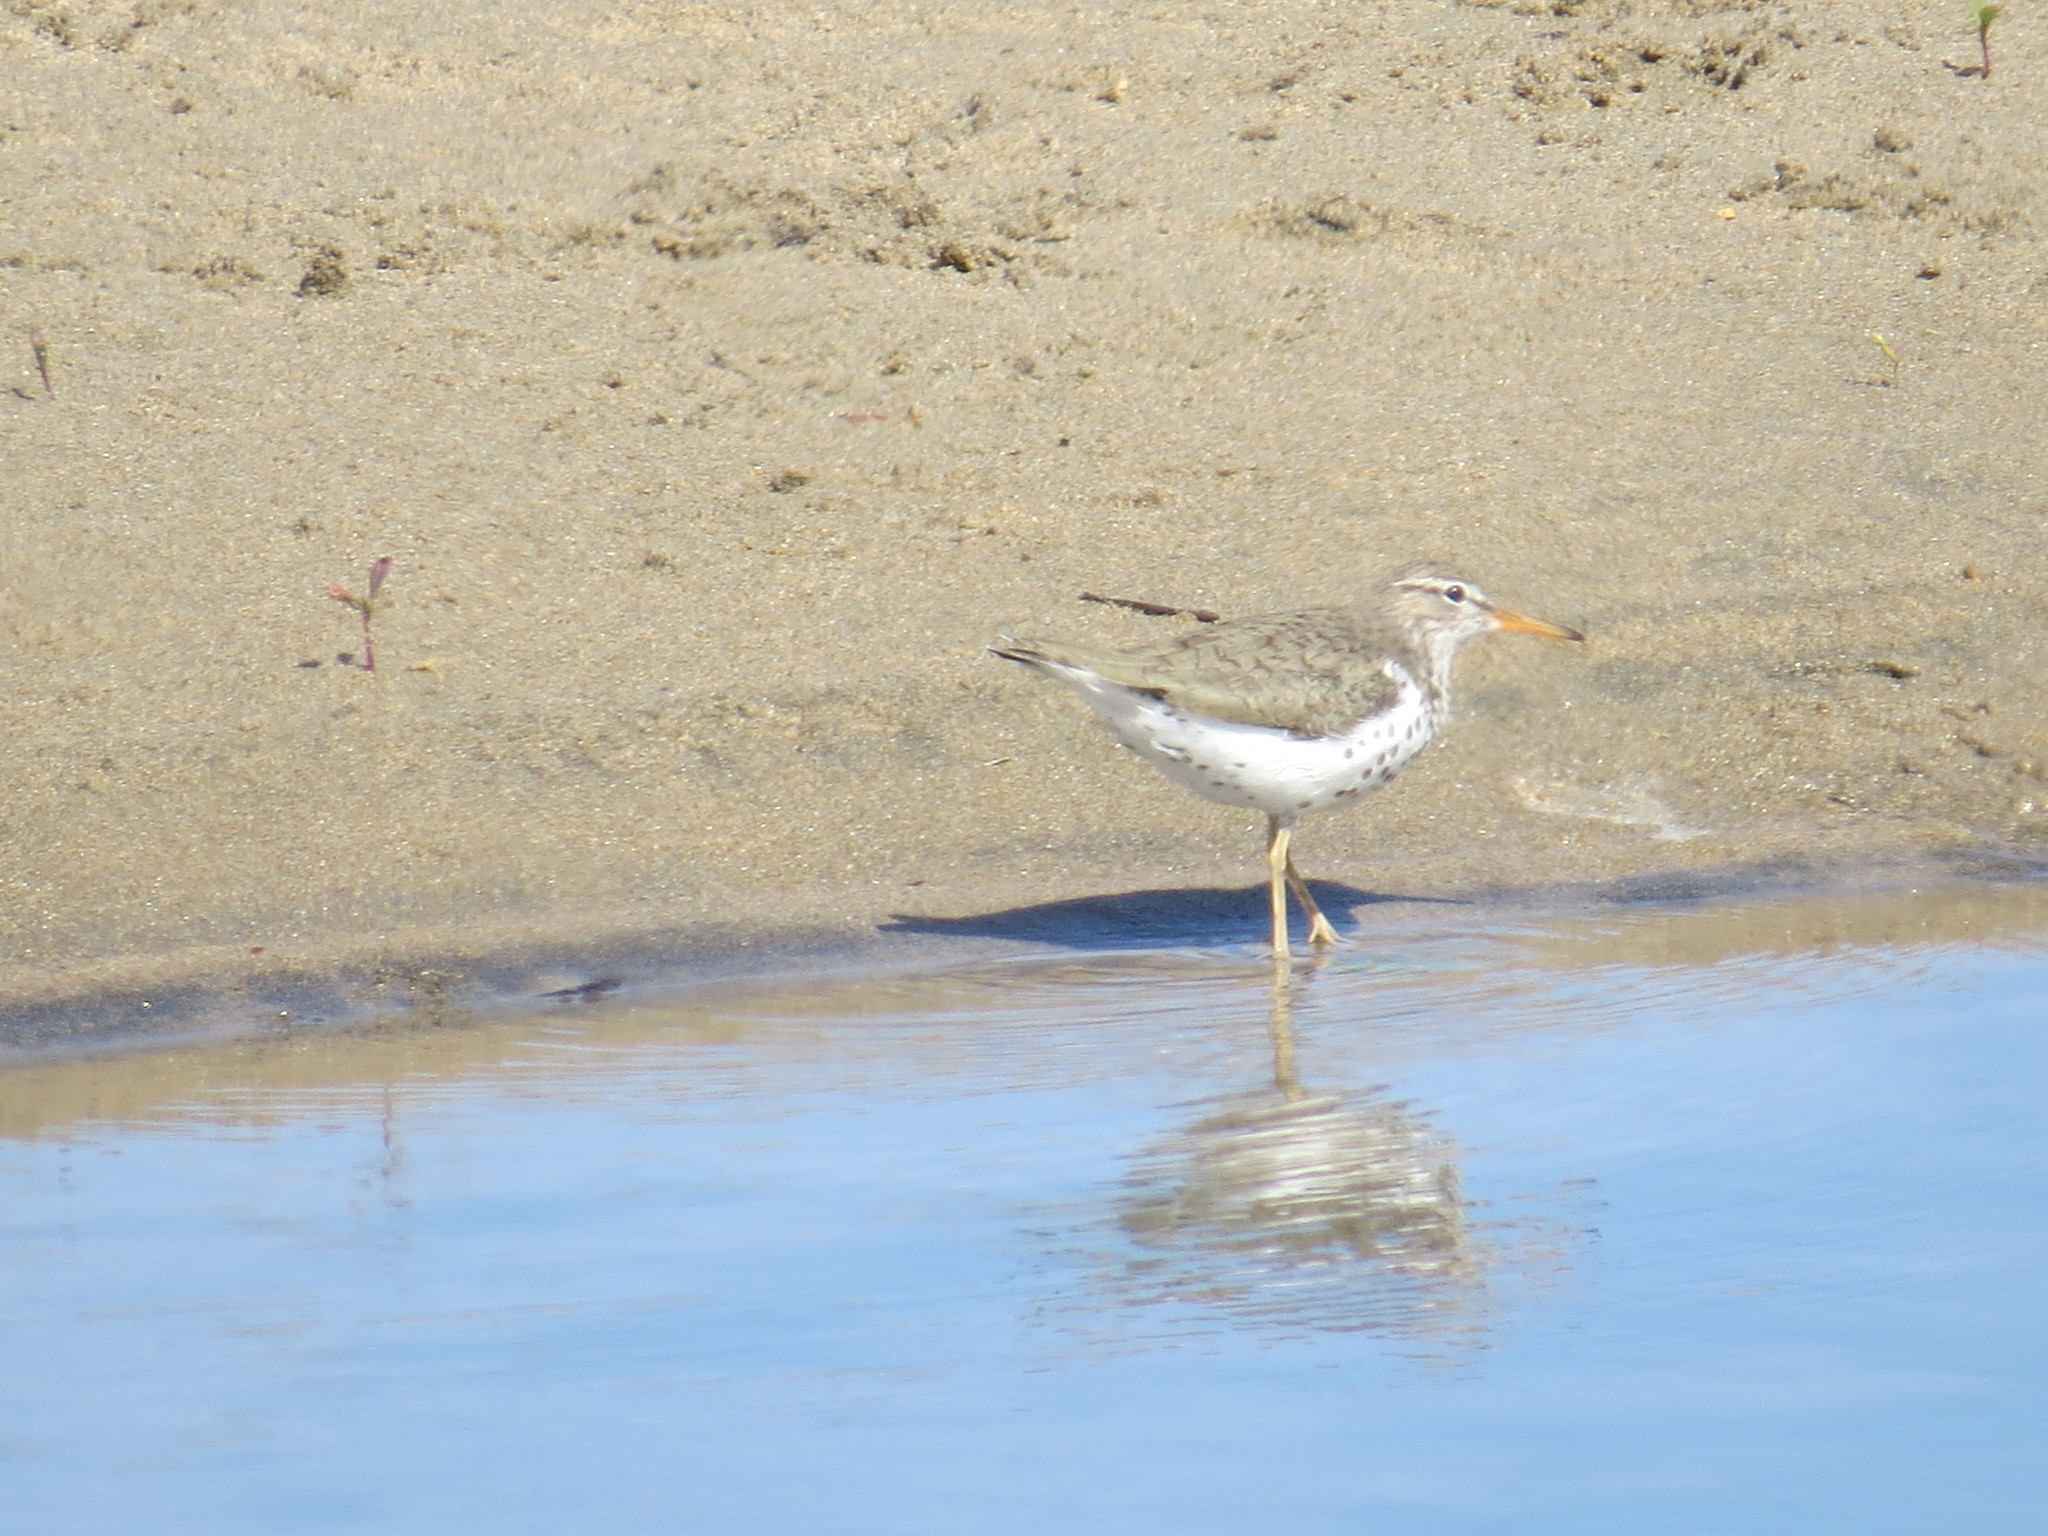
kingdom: Animalia
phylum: Chordata
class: Aves
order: Charadriiformes
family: Scolopacidae
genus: Actitis
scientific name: Actitis macularius
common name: Spotted sandpiper
